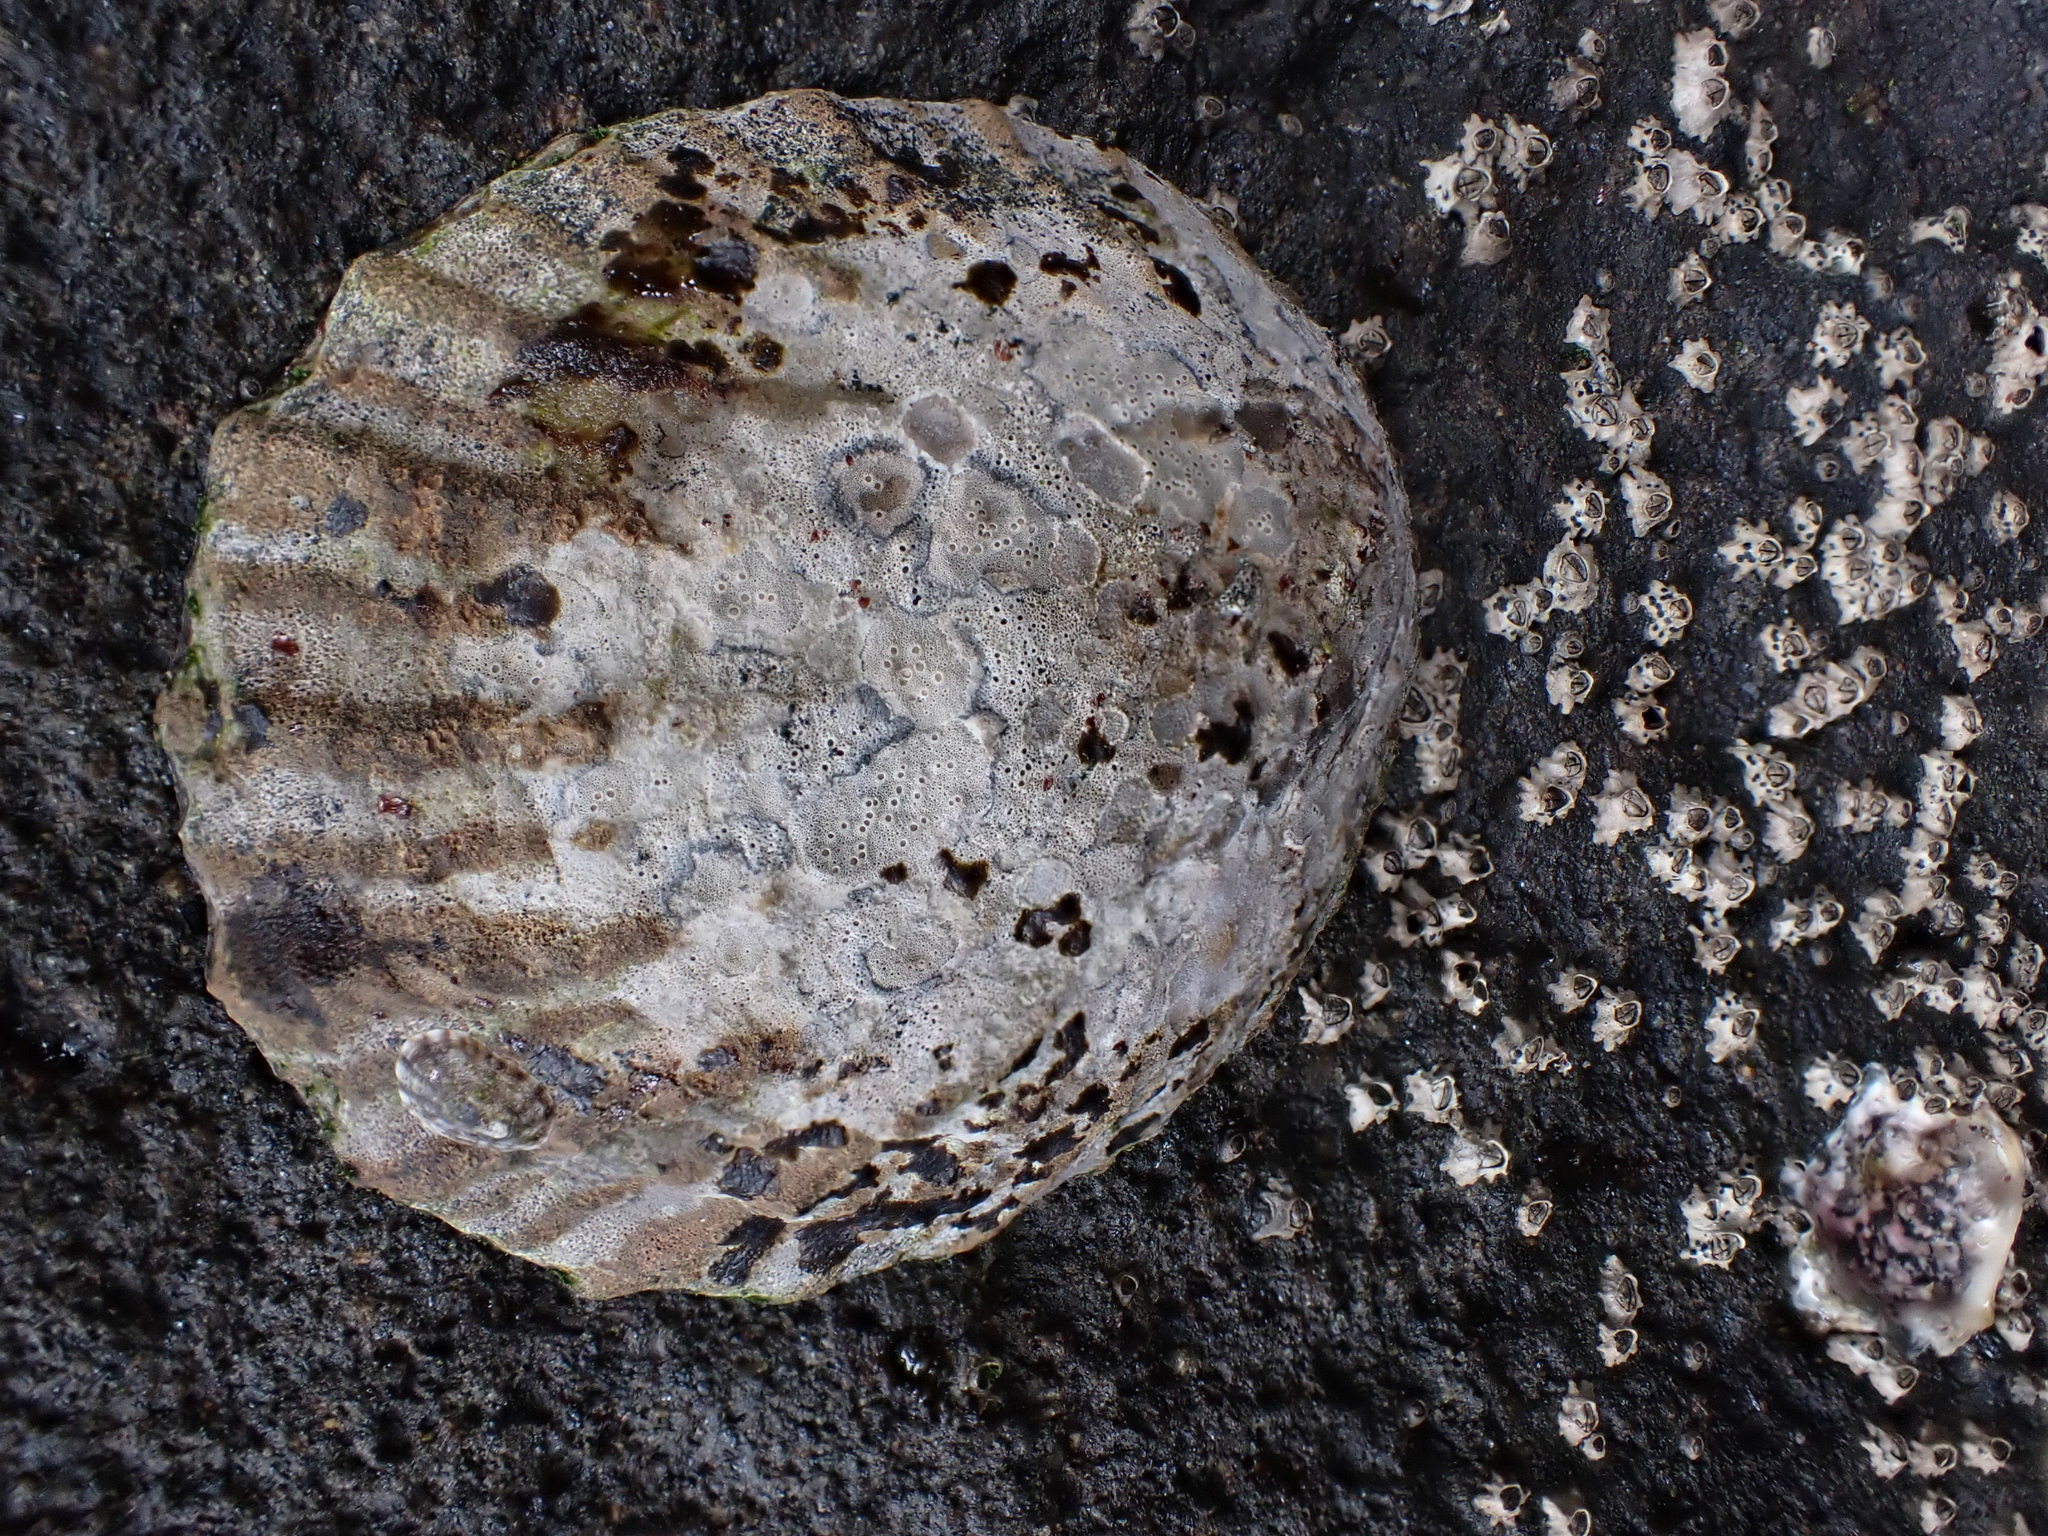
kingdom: Animalia
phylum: Mollusca
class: Gastropoda
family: Nacellidae
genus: Cellana
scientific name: Cellana radians
